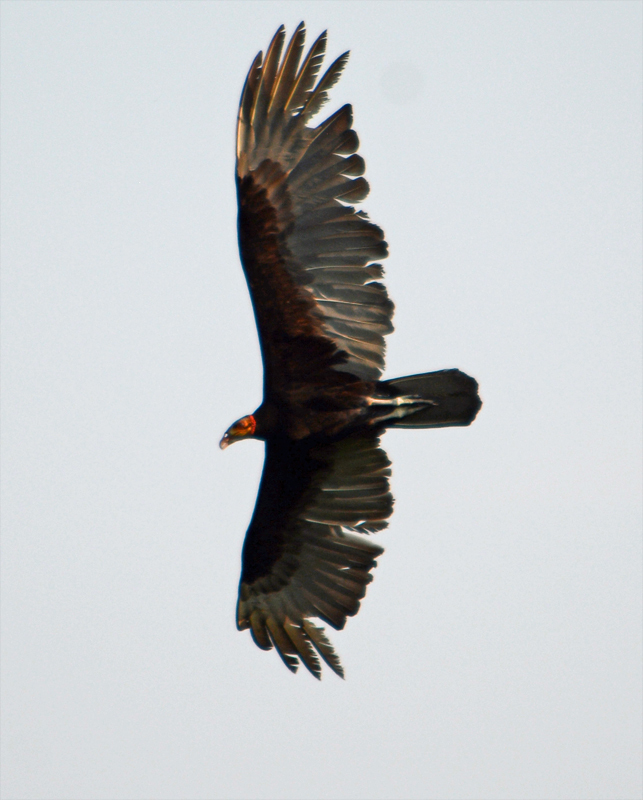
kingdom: Animalia
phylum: Chordata
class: Aves
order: Accipitriformes
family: Cathartidae
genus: Cathartes
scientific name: Cathartes burrovianus
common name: Lesser yellow-headed vulture
